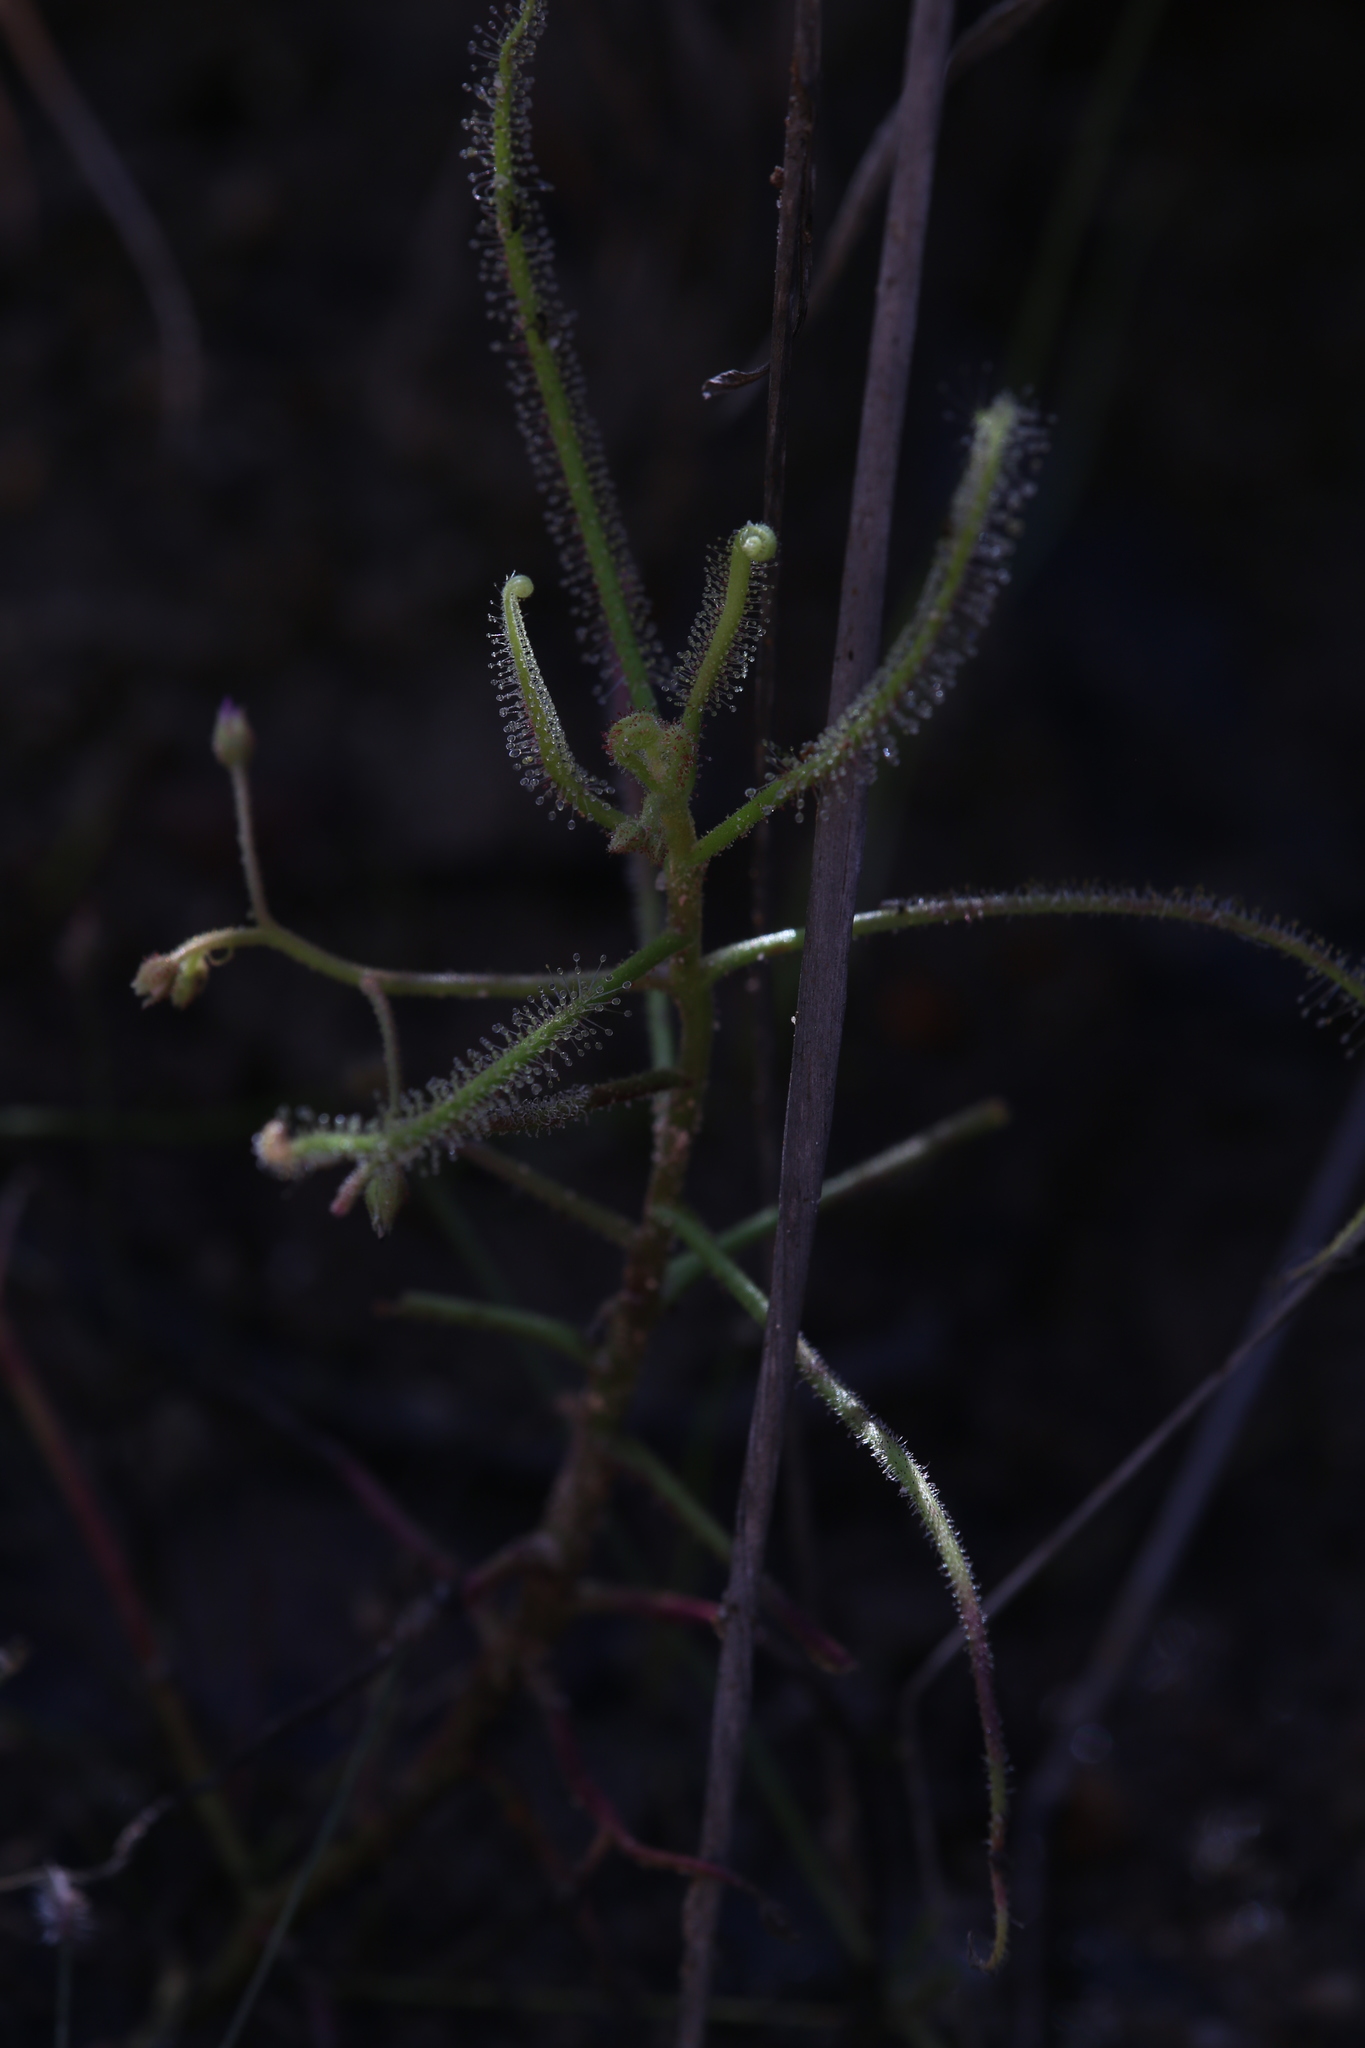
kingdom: Plantae
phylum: Tracheophyta
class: Magnoliopsida
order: Caryophyllales
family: Droseraceae
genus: Drosera
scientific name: Drosera indica
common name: Indian sundew
